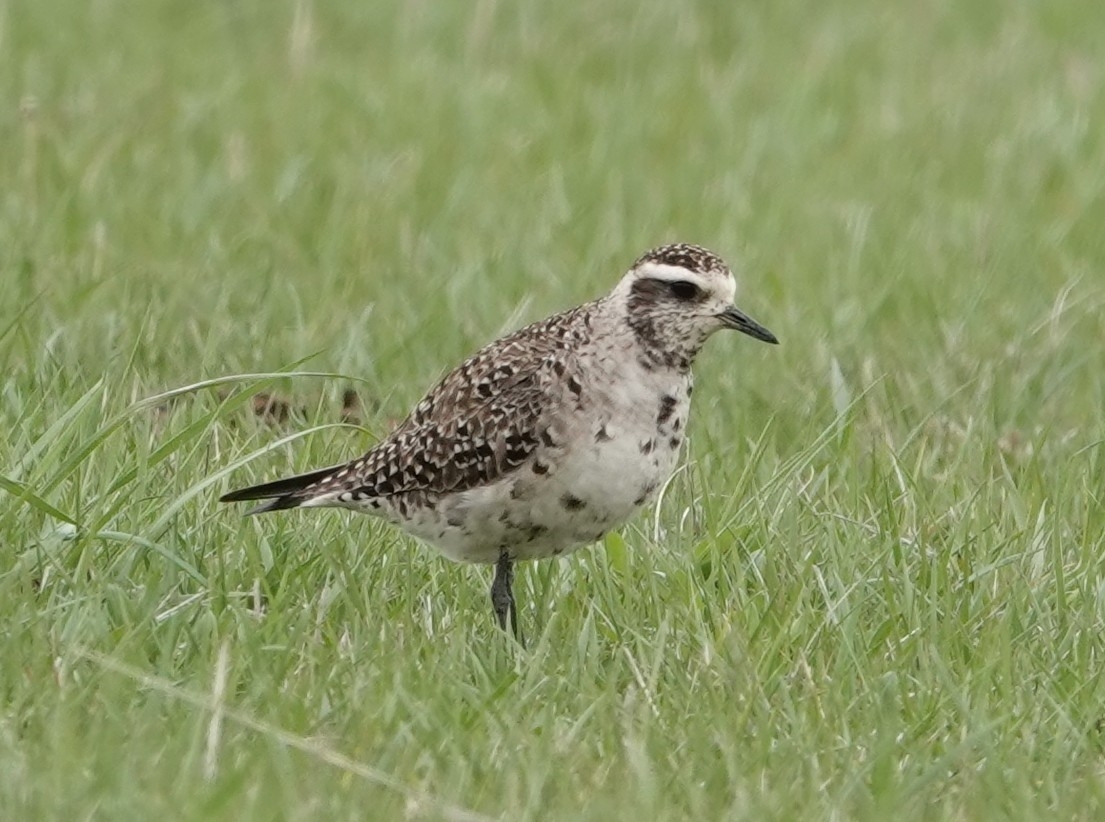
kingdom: Animalia
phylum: Chordata
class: Aves
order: Charadriiformes
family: Charadriidae
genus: Pluvialis
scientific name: Pluvialis dominica
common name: American golden plover
